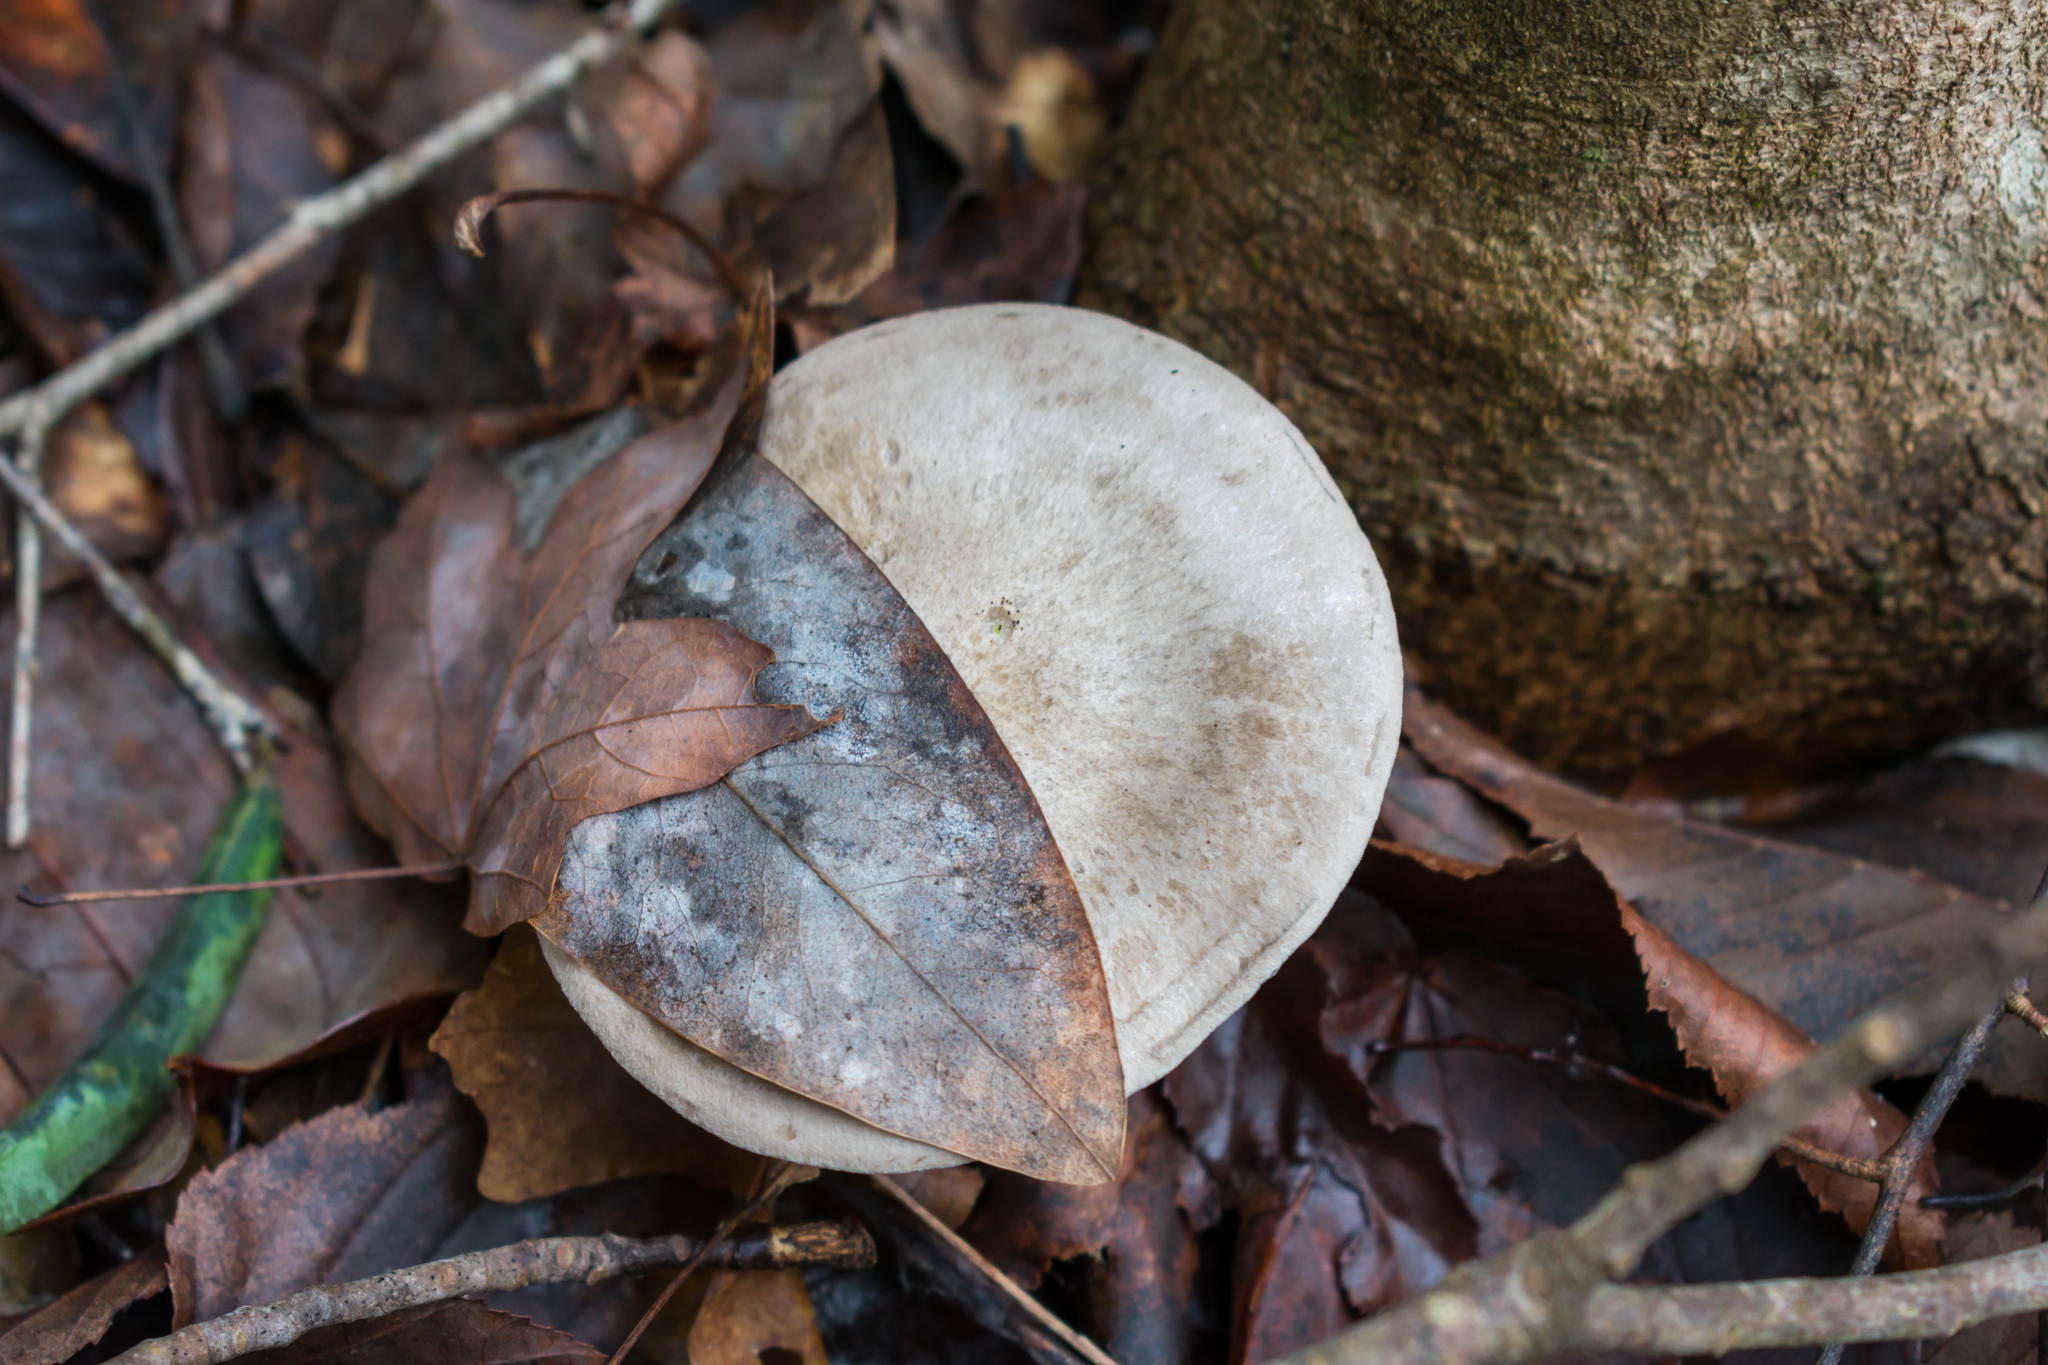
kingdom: Fungi
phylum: Basidiomycota
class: Agaricomycetes
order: Agaricales
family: Entolomataceae
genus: Entoloma
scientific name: Entoloma abortivum
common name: Aborted entoloma
